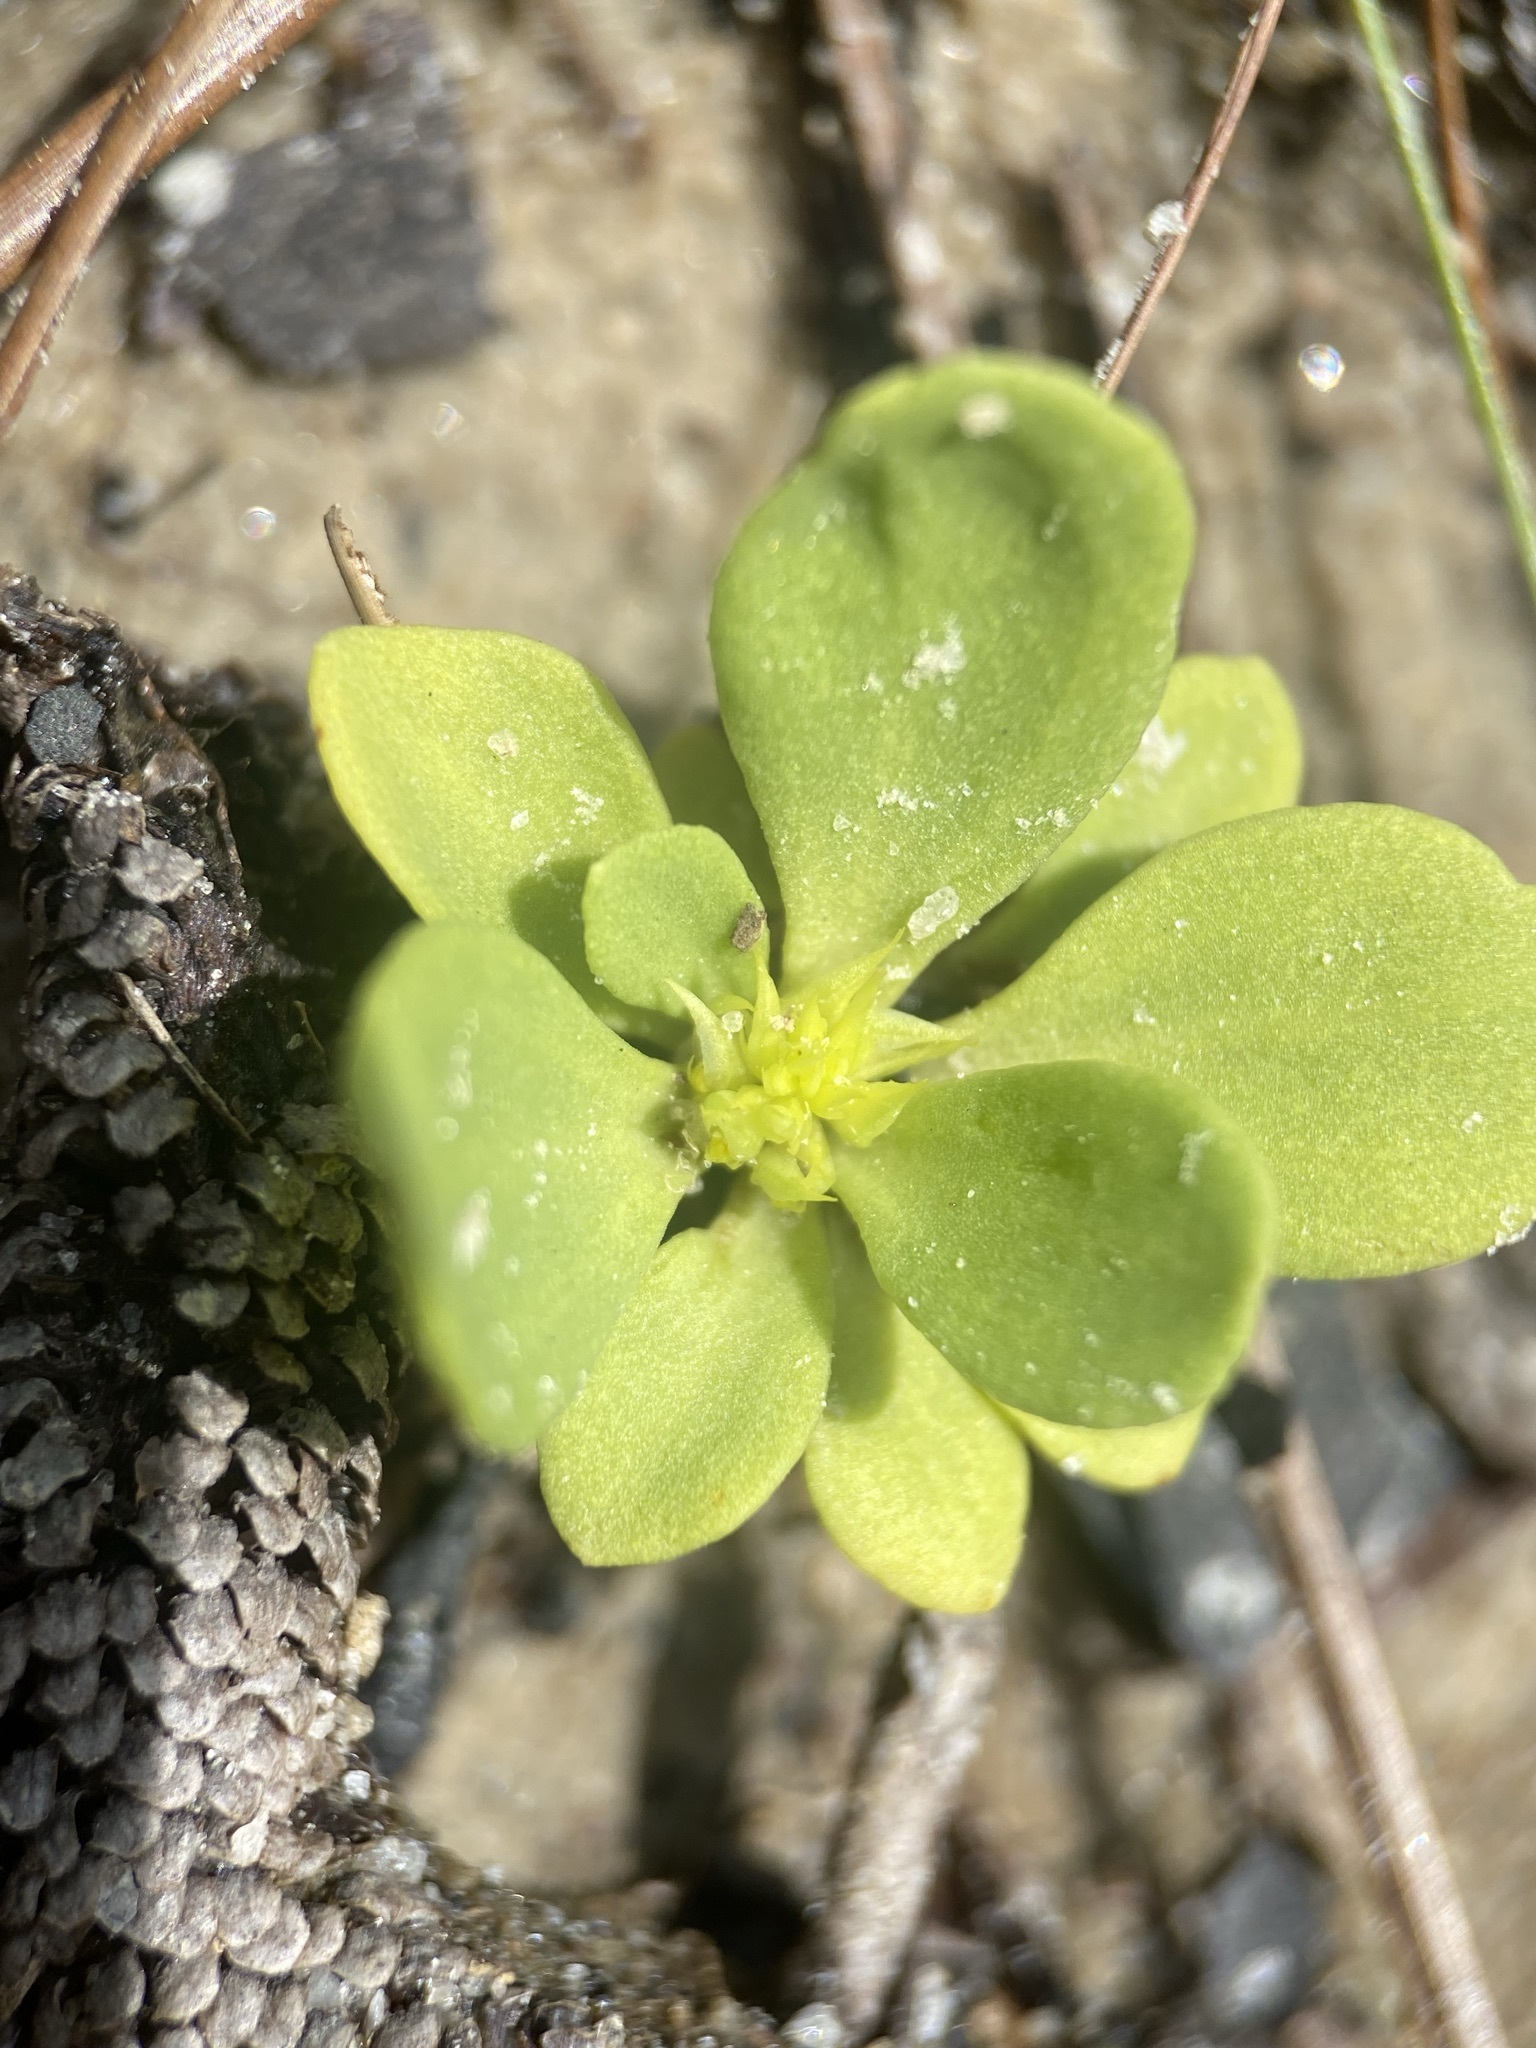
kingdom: Plantae
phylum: Tracheophyta
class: Magnoliopsida
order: Fabales
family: Polygalaceae
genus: Polygala
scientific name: Polygala nana
